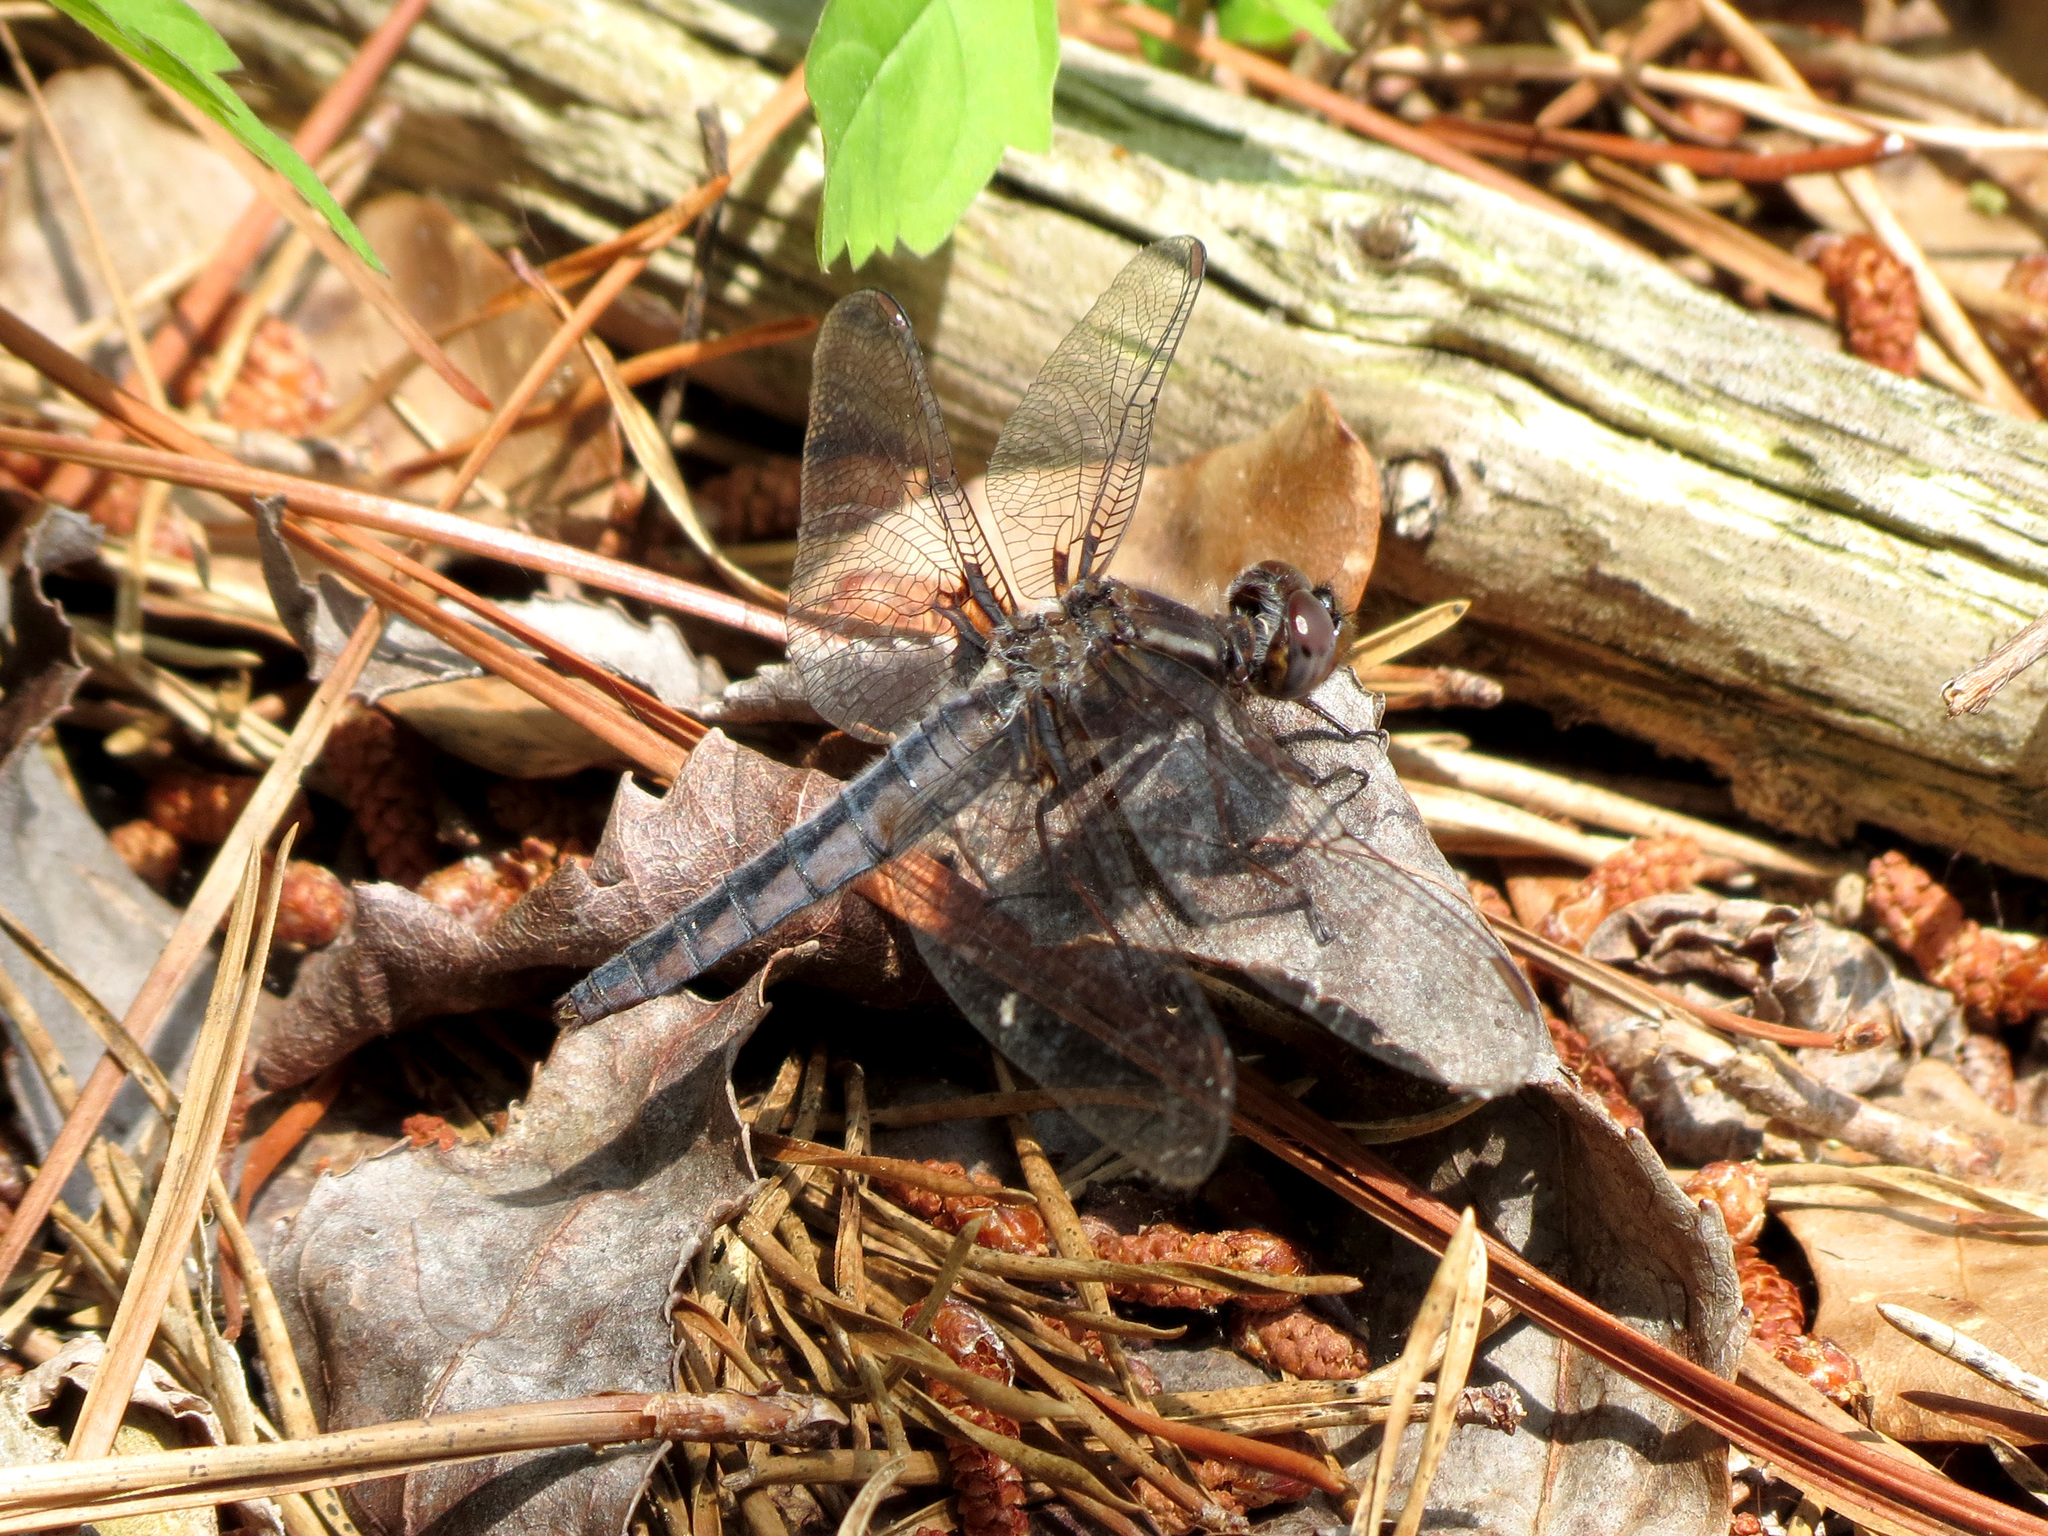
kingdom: Animalia
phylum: Arthropoda
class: Insecta
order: Odonata
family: Libellulidae
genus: Ladona
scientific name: Ladona deplanata
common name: Blue corporal
